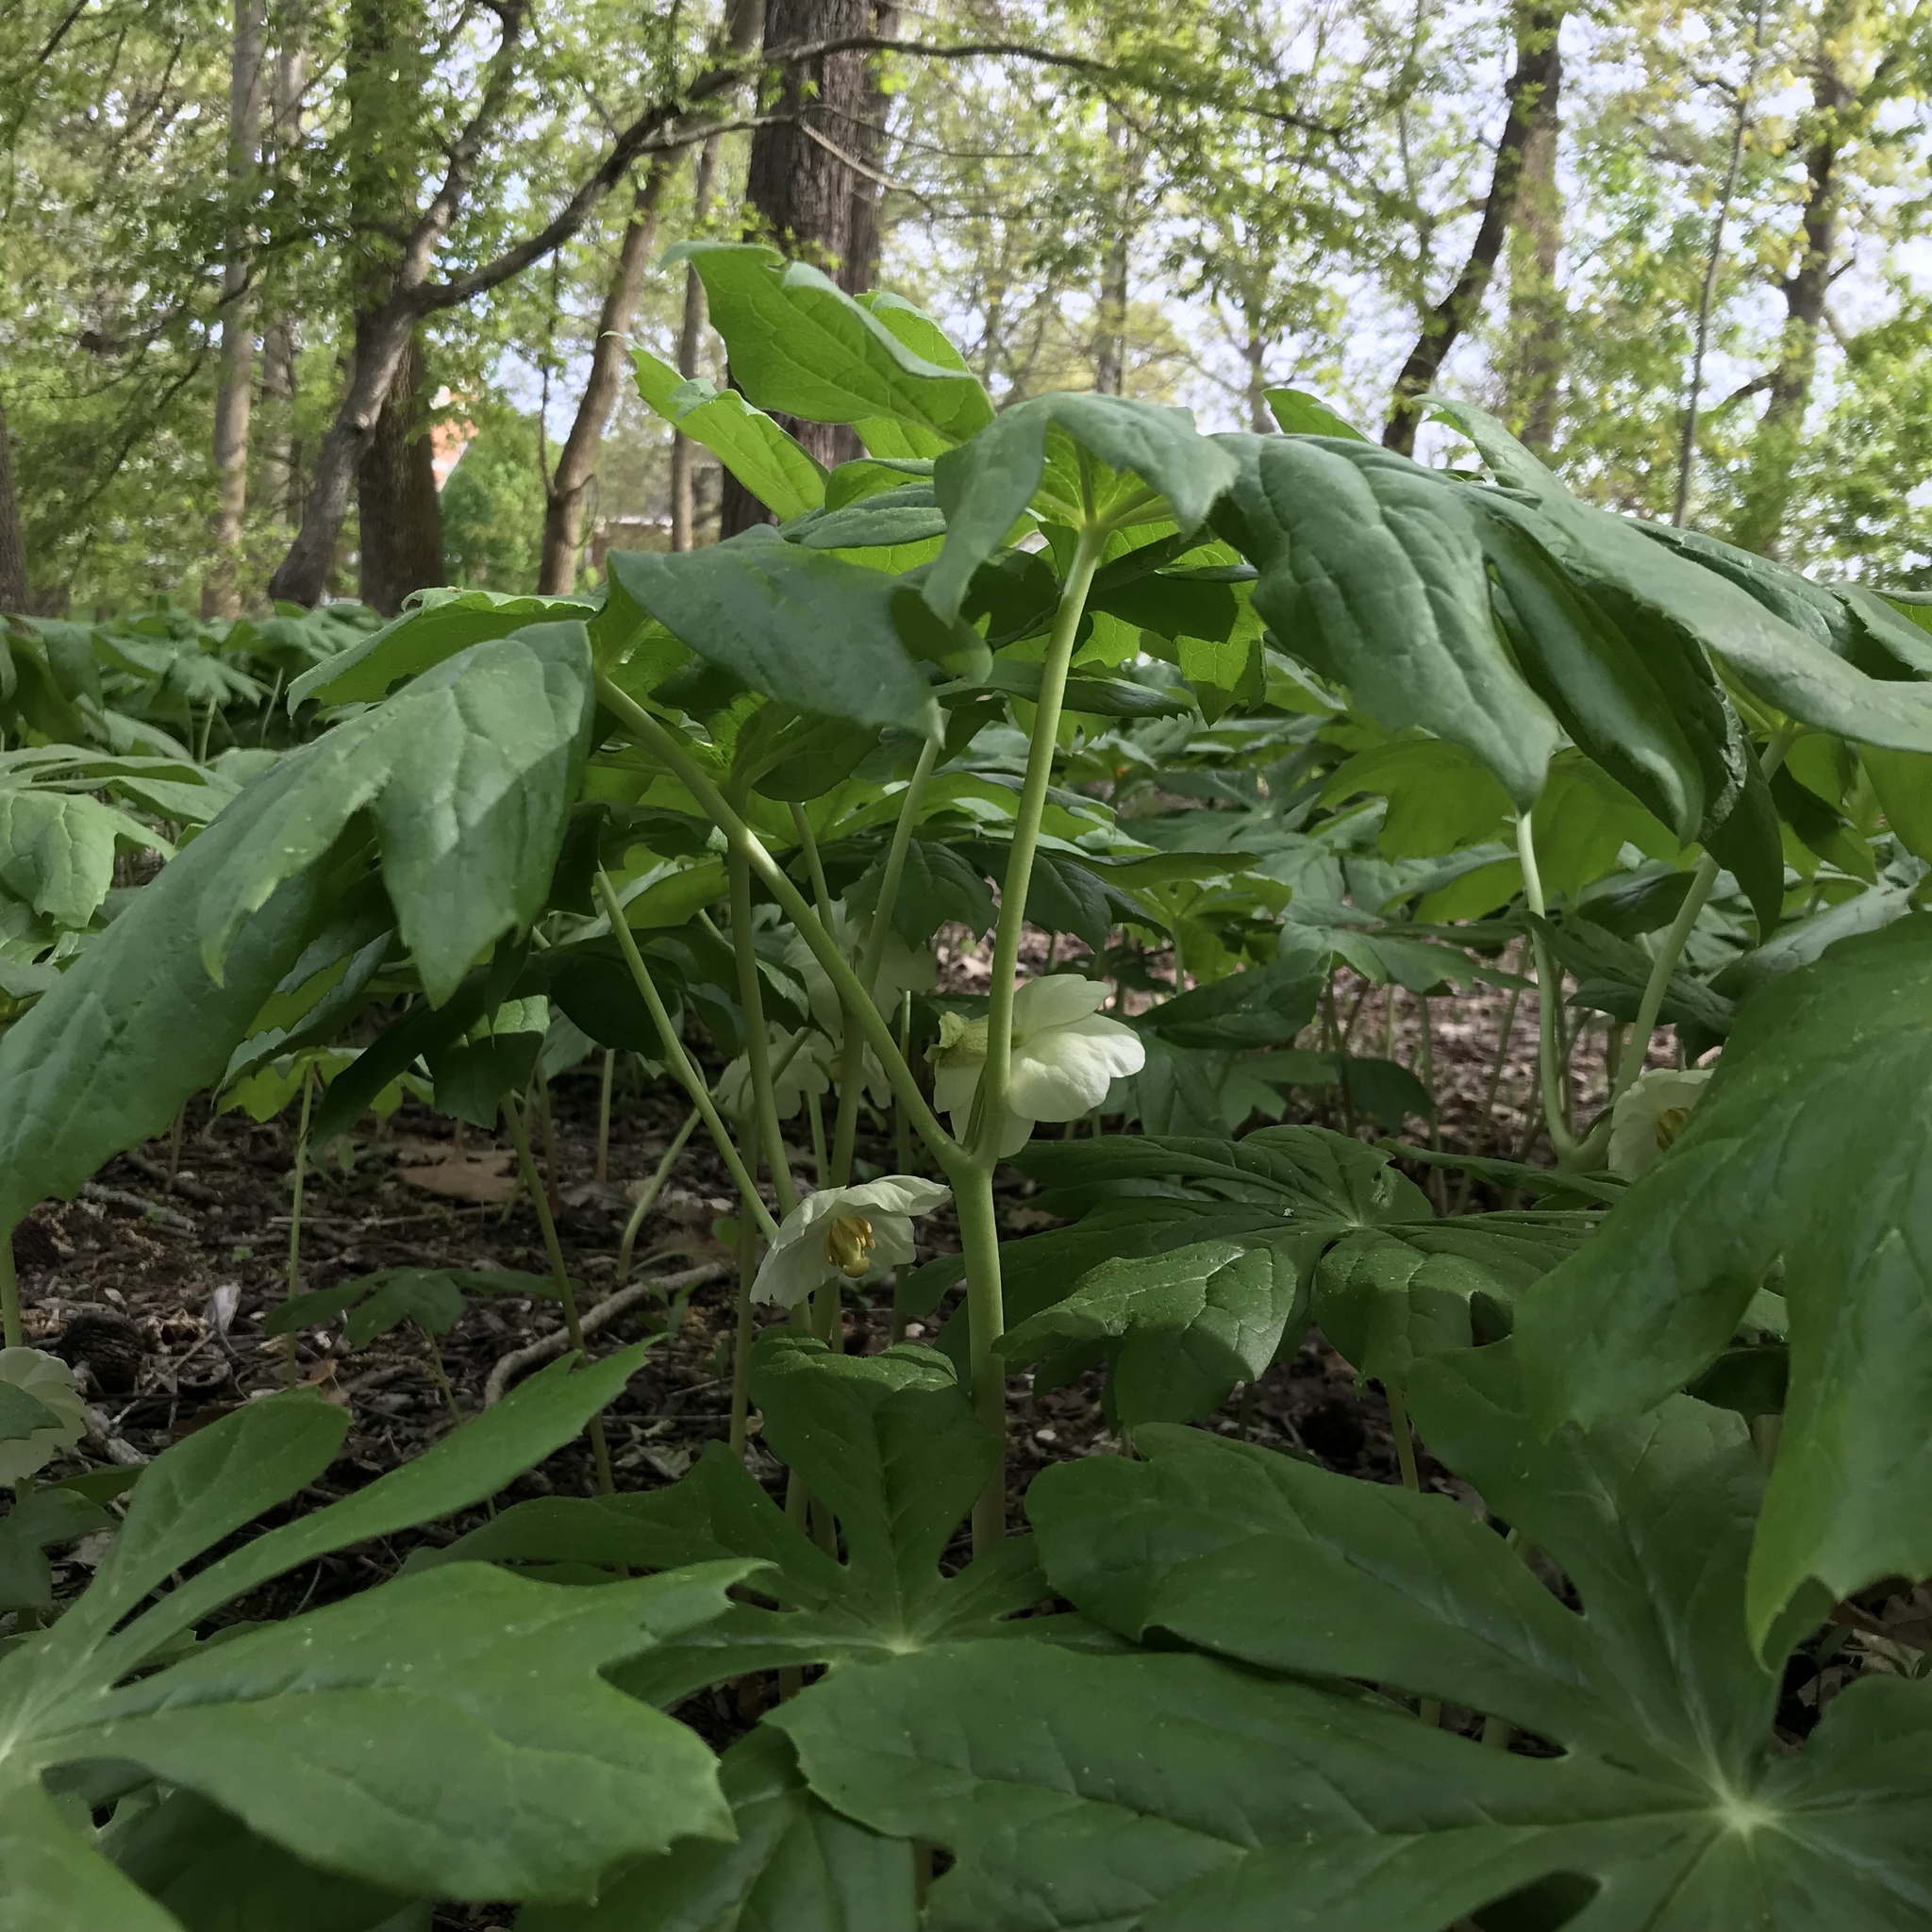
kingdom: Plantae
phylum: Tracheophyta
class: Magnoliopsida
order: Ranunculales
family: Berberidaceae
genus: Podophyllum
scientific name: Podophyllum peltatum
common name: Wild mandrake
